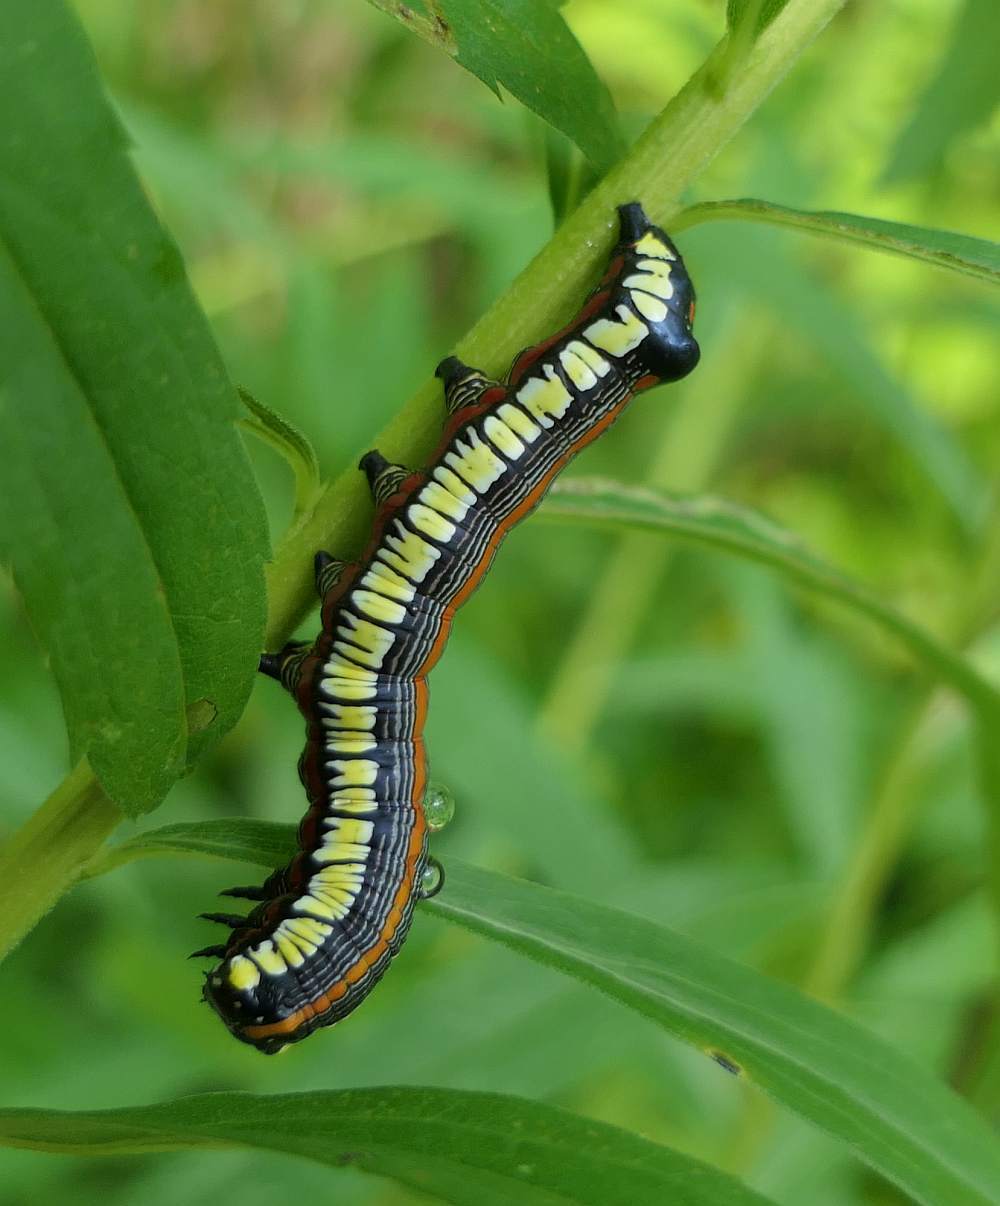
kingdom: Animalia
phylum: Arthropoda
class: Insecta
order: Lepidoptera
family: Noctuidae
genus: Cucullia
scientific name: Cucullia convexipennis
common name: Brown-hooded owlet
